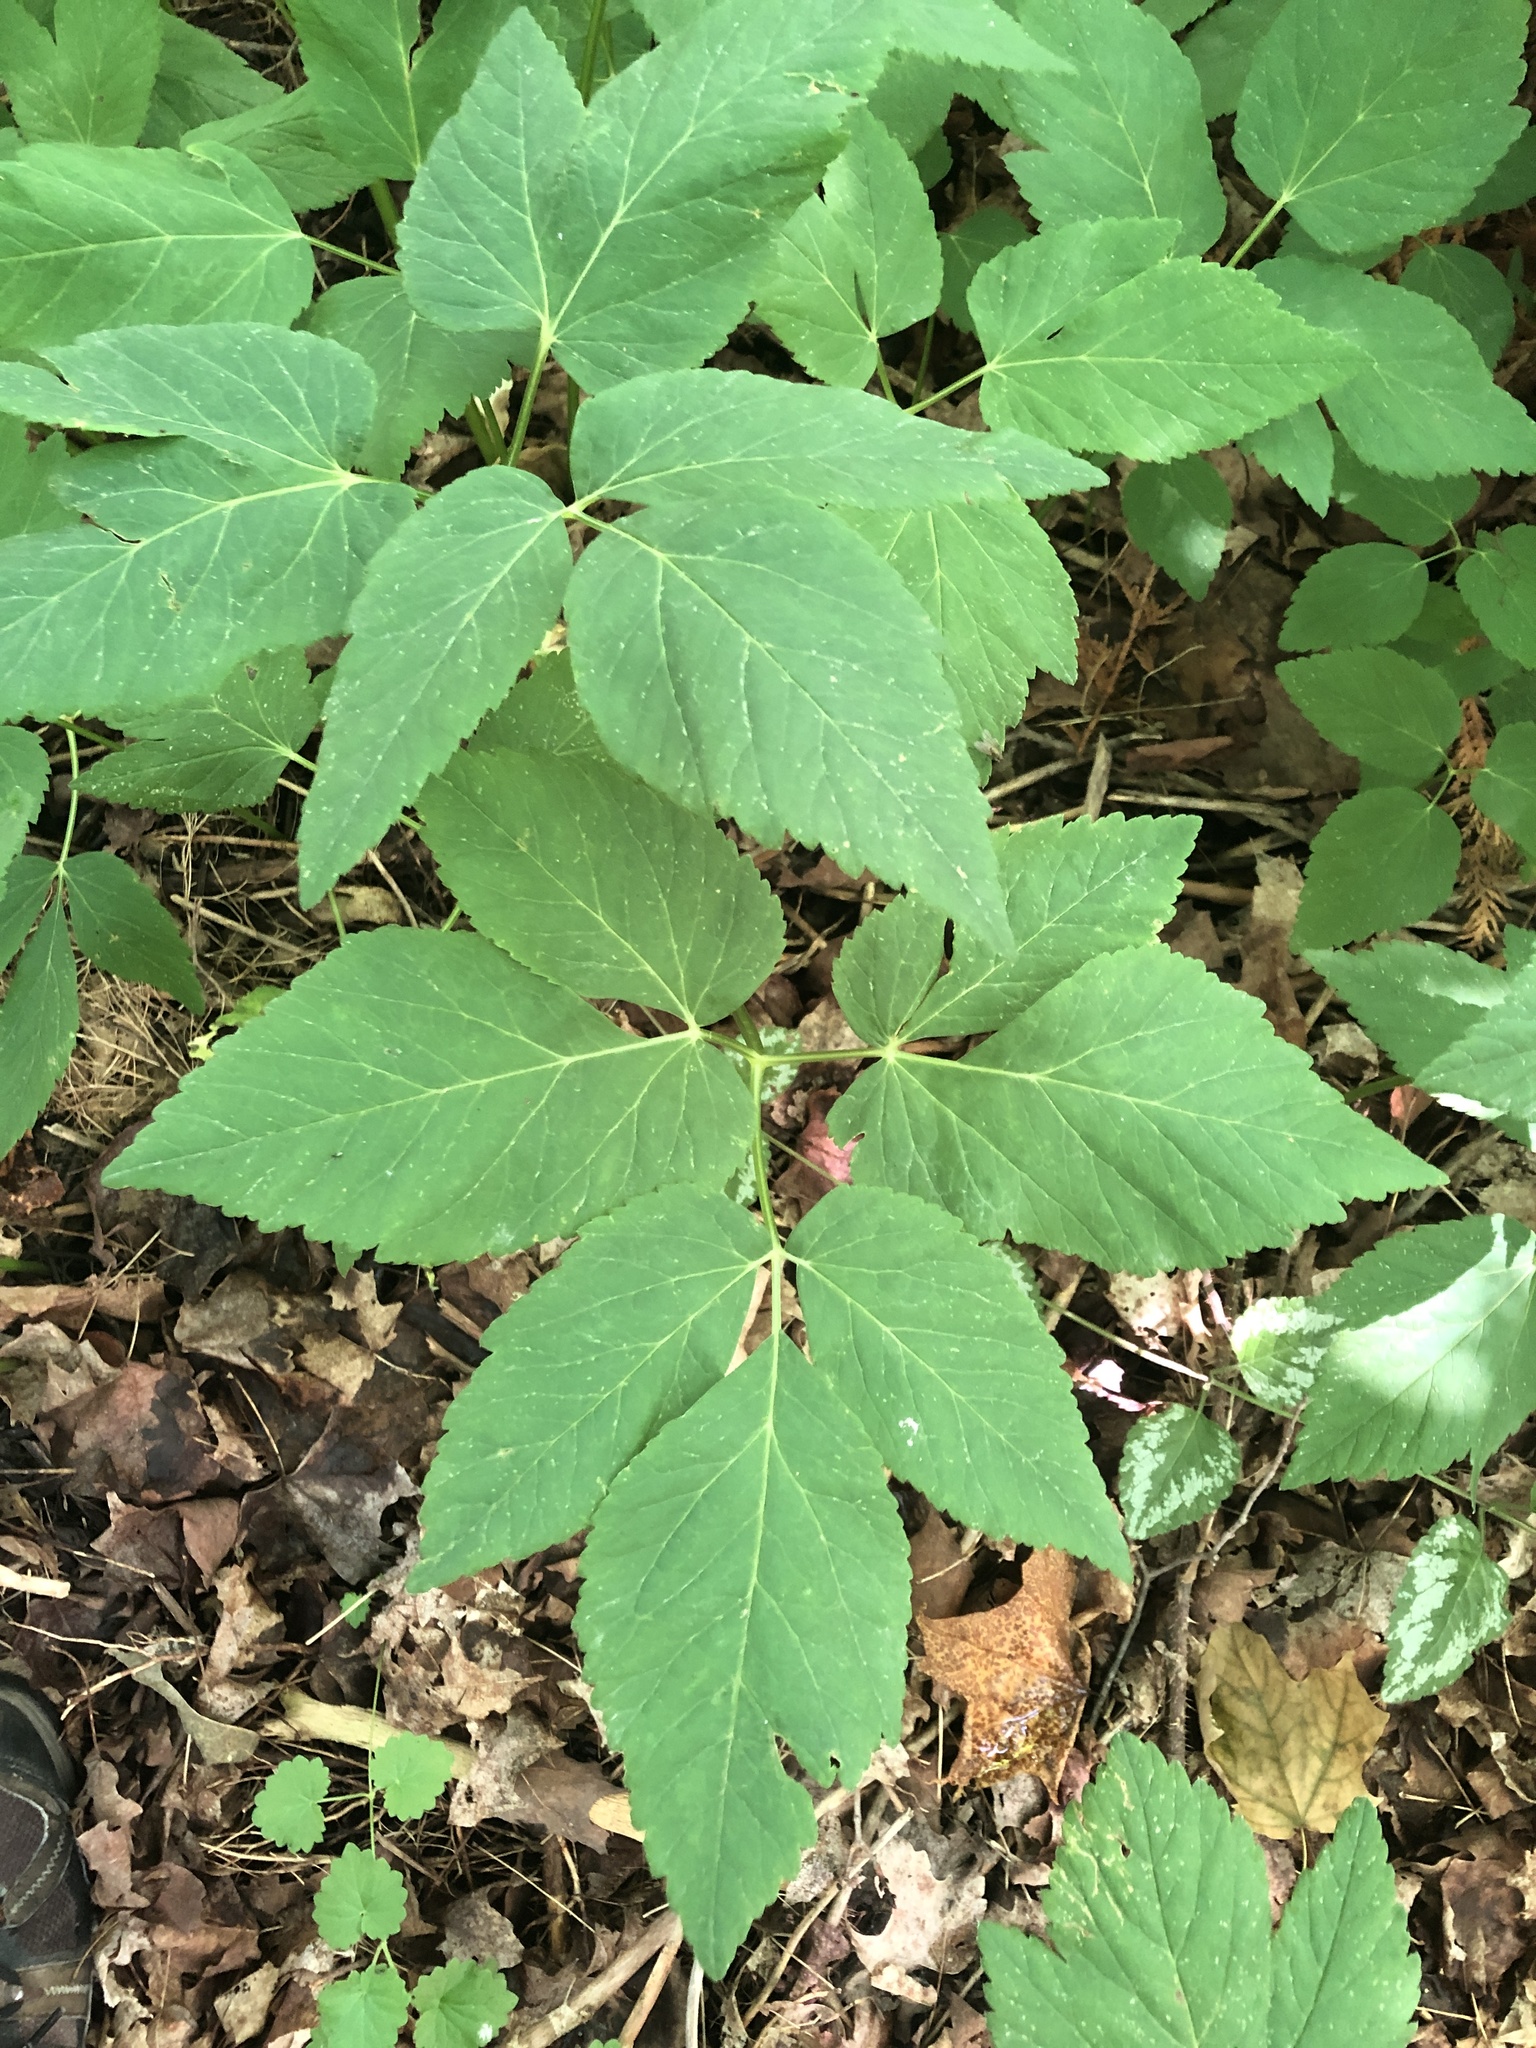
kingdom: Plantae
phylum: Tracheophyta
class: Magnoliopsida
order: Apiales
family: Apiaceae
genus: Aegopodium
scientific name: Aegopodium podagraria
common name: Ground-elder
